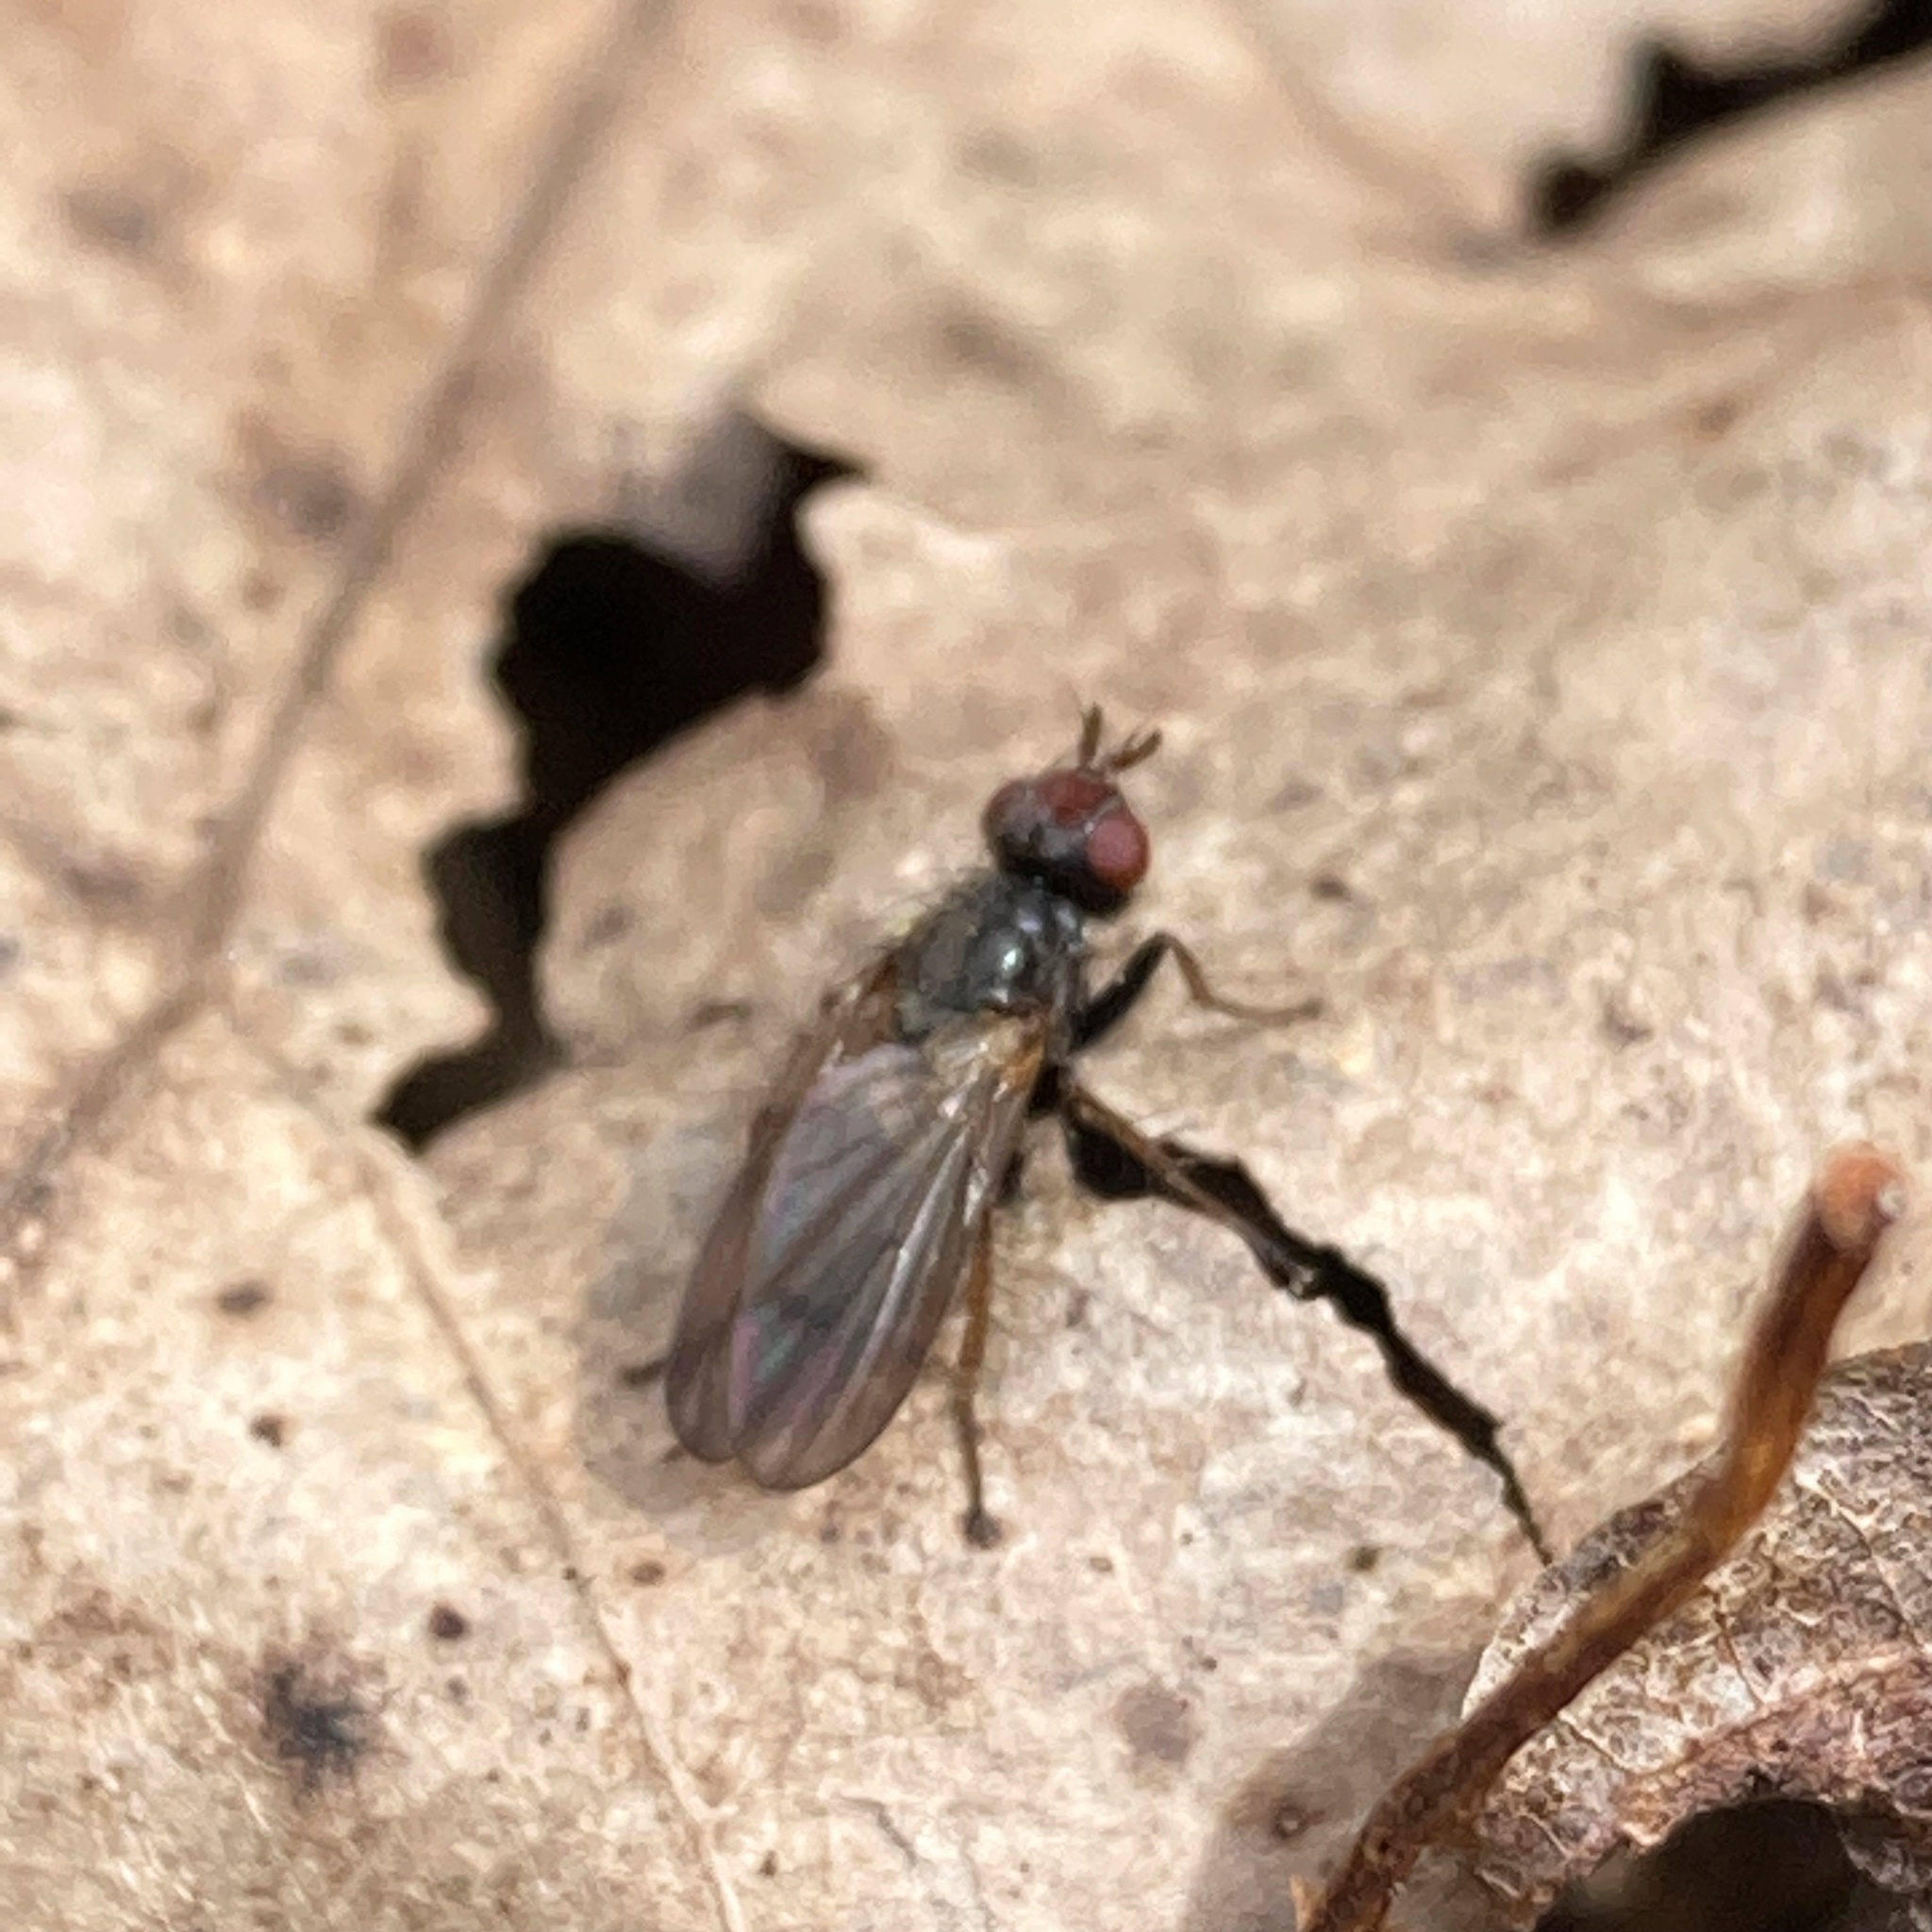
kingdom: Animalia
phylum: Arthropoda
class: Insecta
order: Diptera
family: Scathophagidae
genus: Bucephalina
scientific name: Bucephalina megacephala
